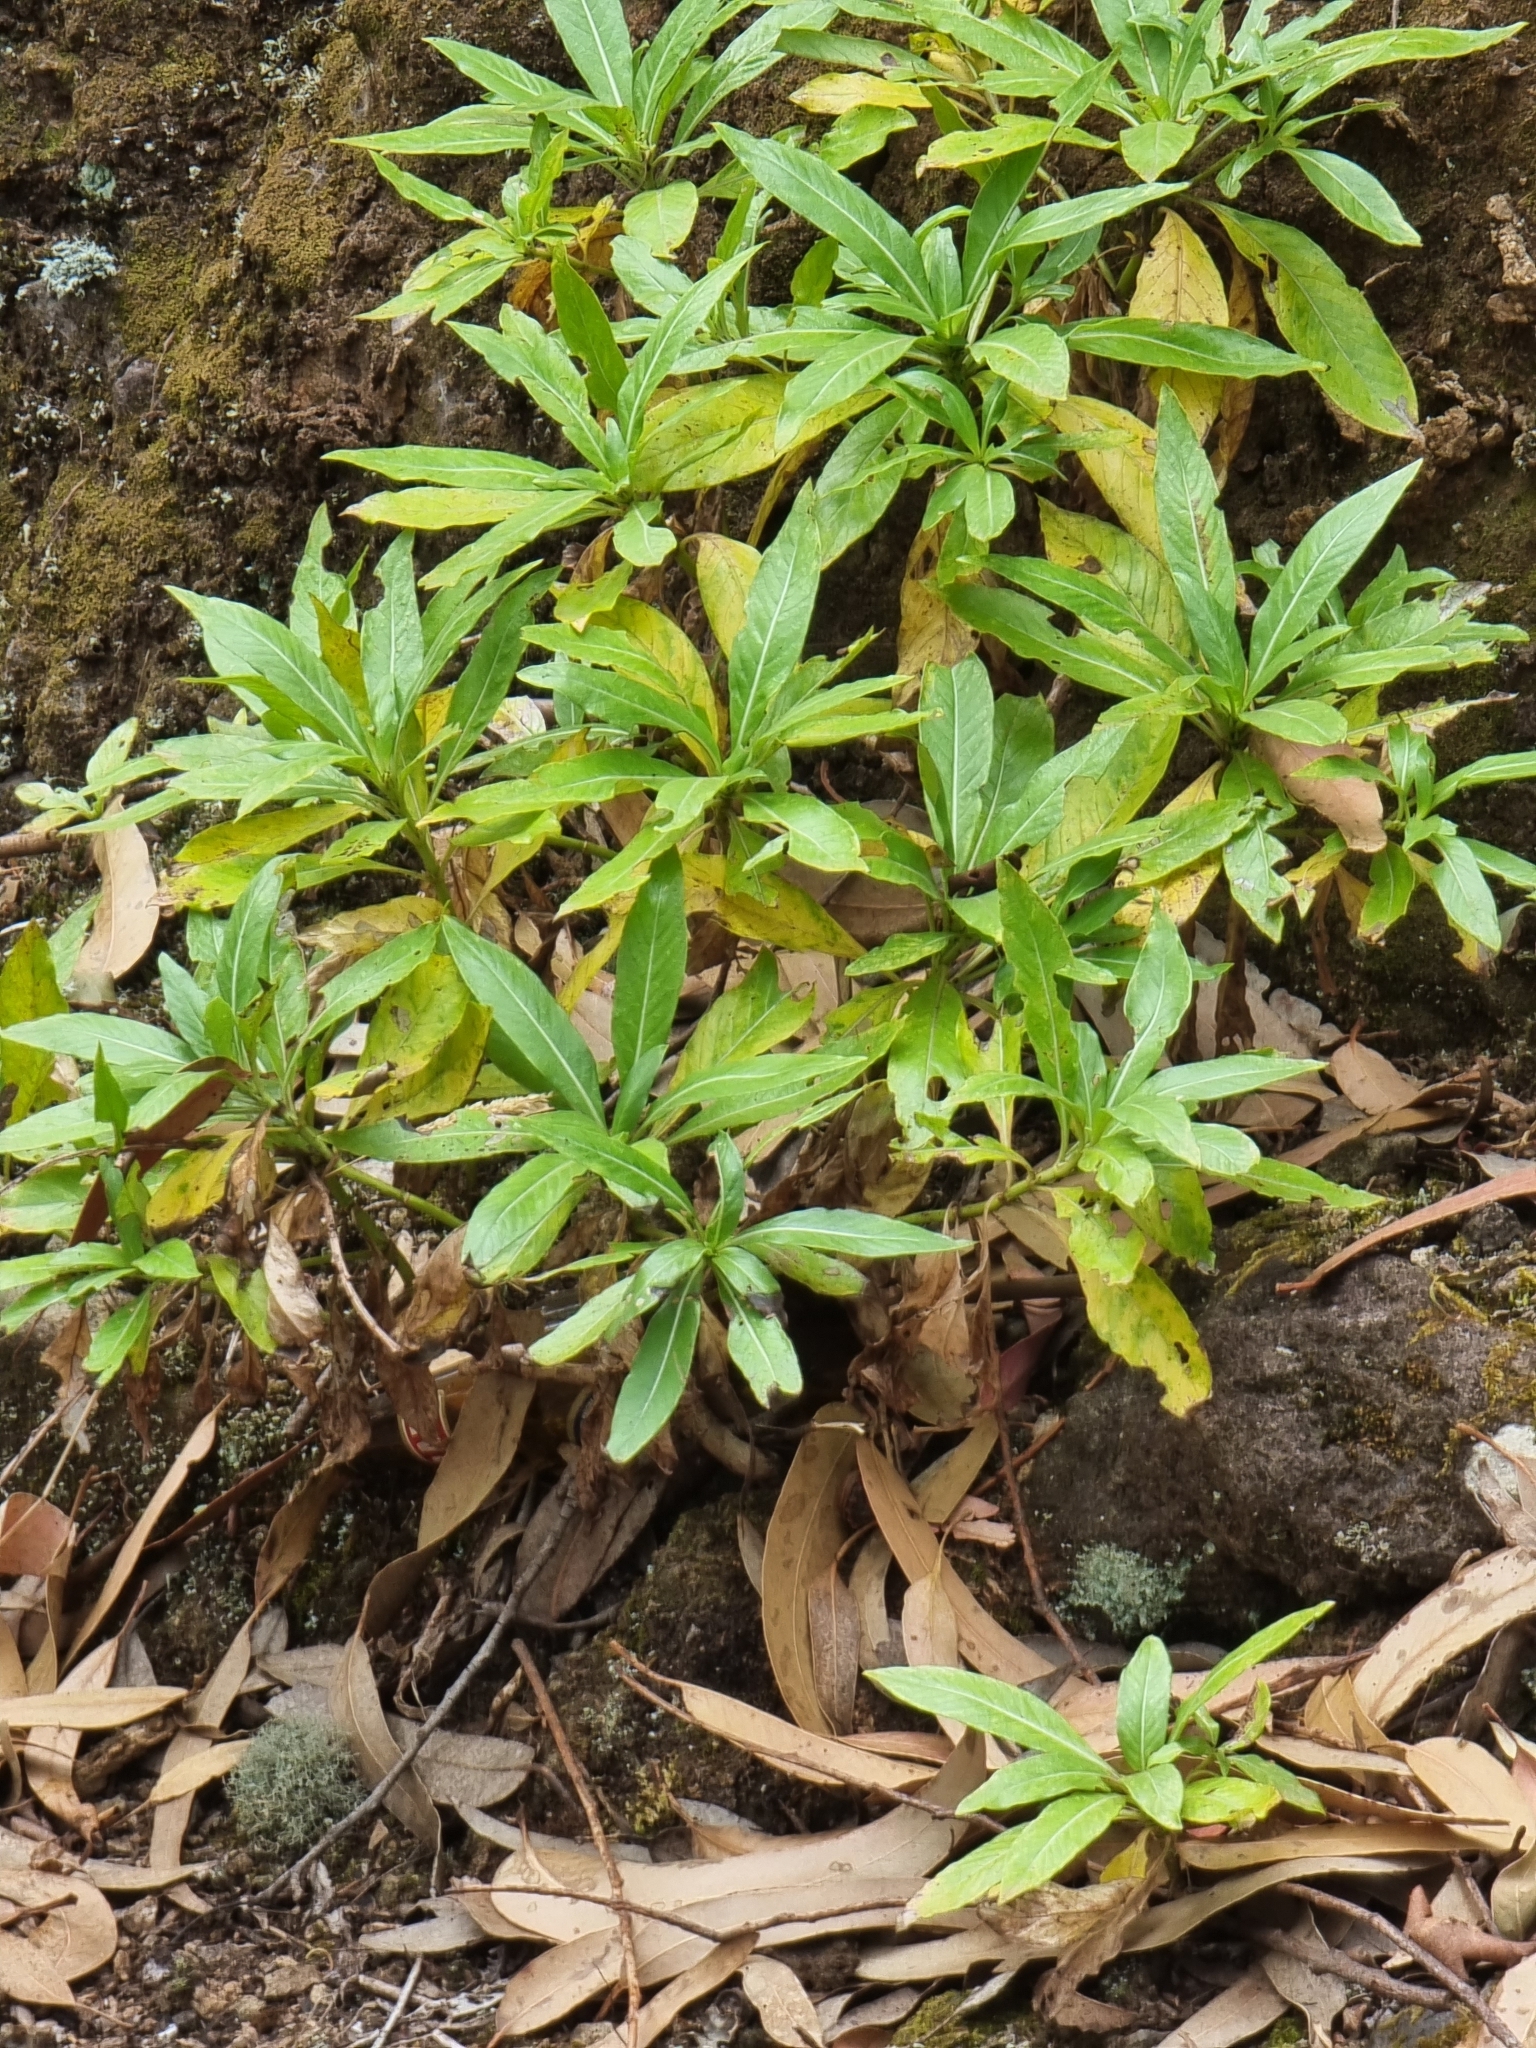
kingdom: Plantae
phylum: Tracheophyta
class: Magnoliopsida
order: Gentianales
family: Rubiaceae
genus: Phyllis
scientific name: Phyllis nobla
